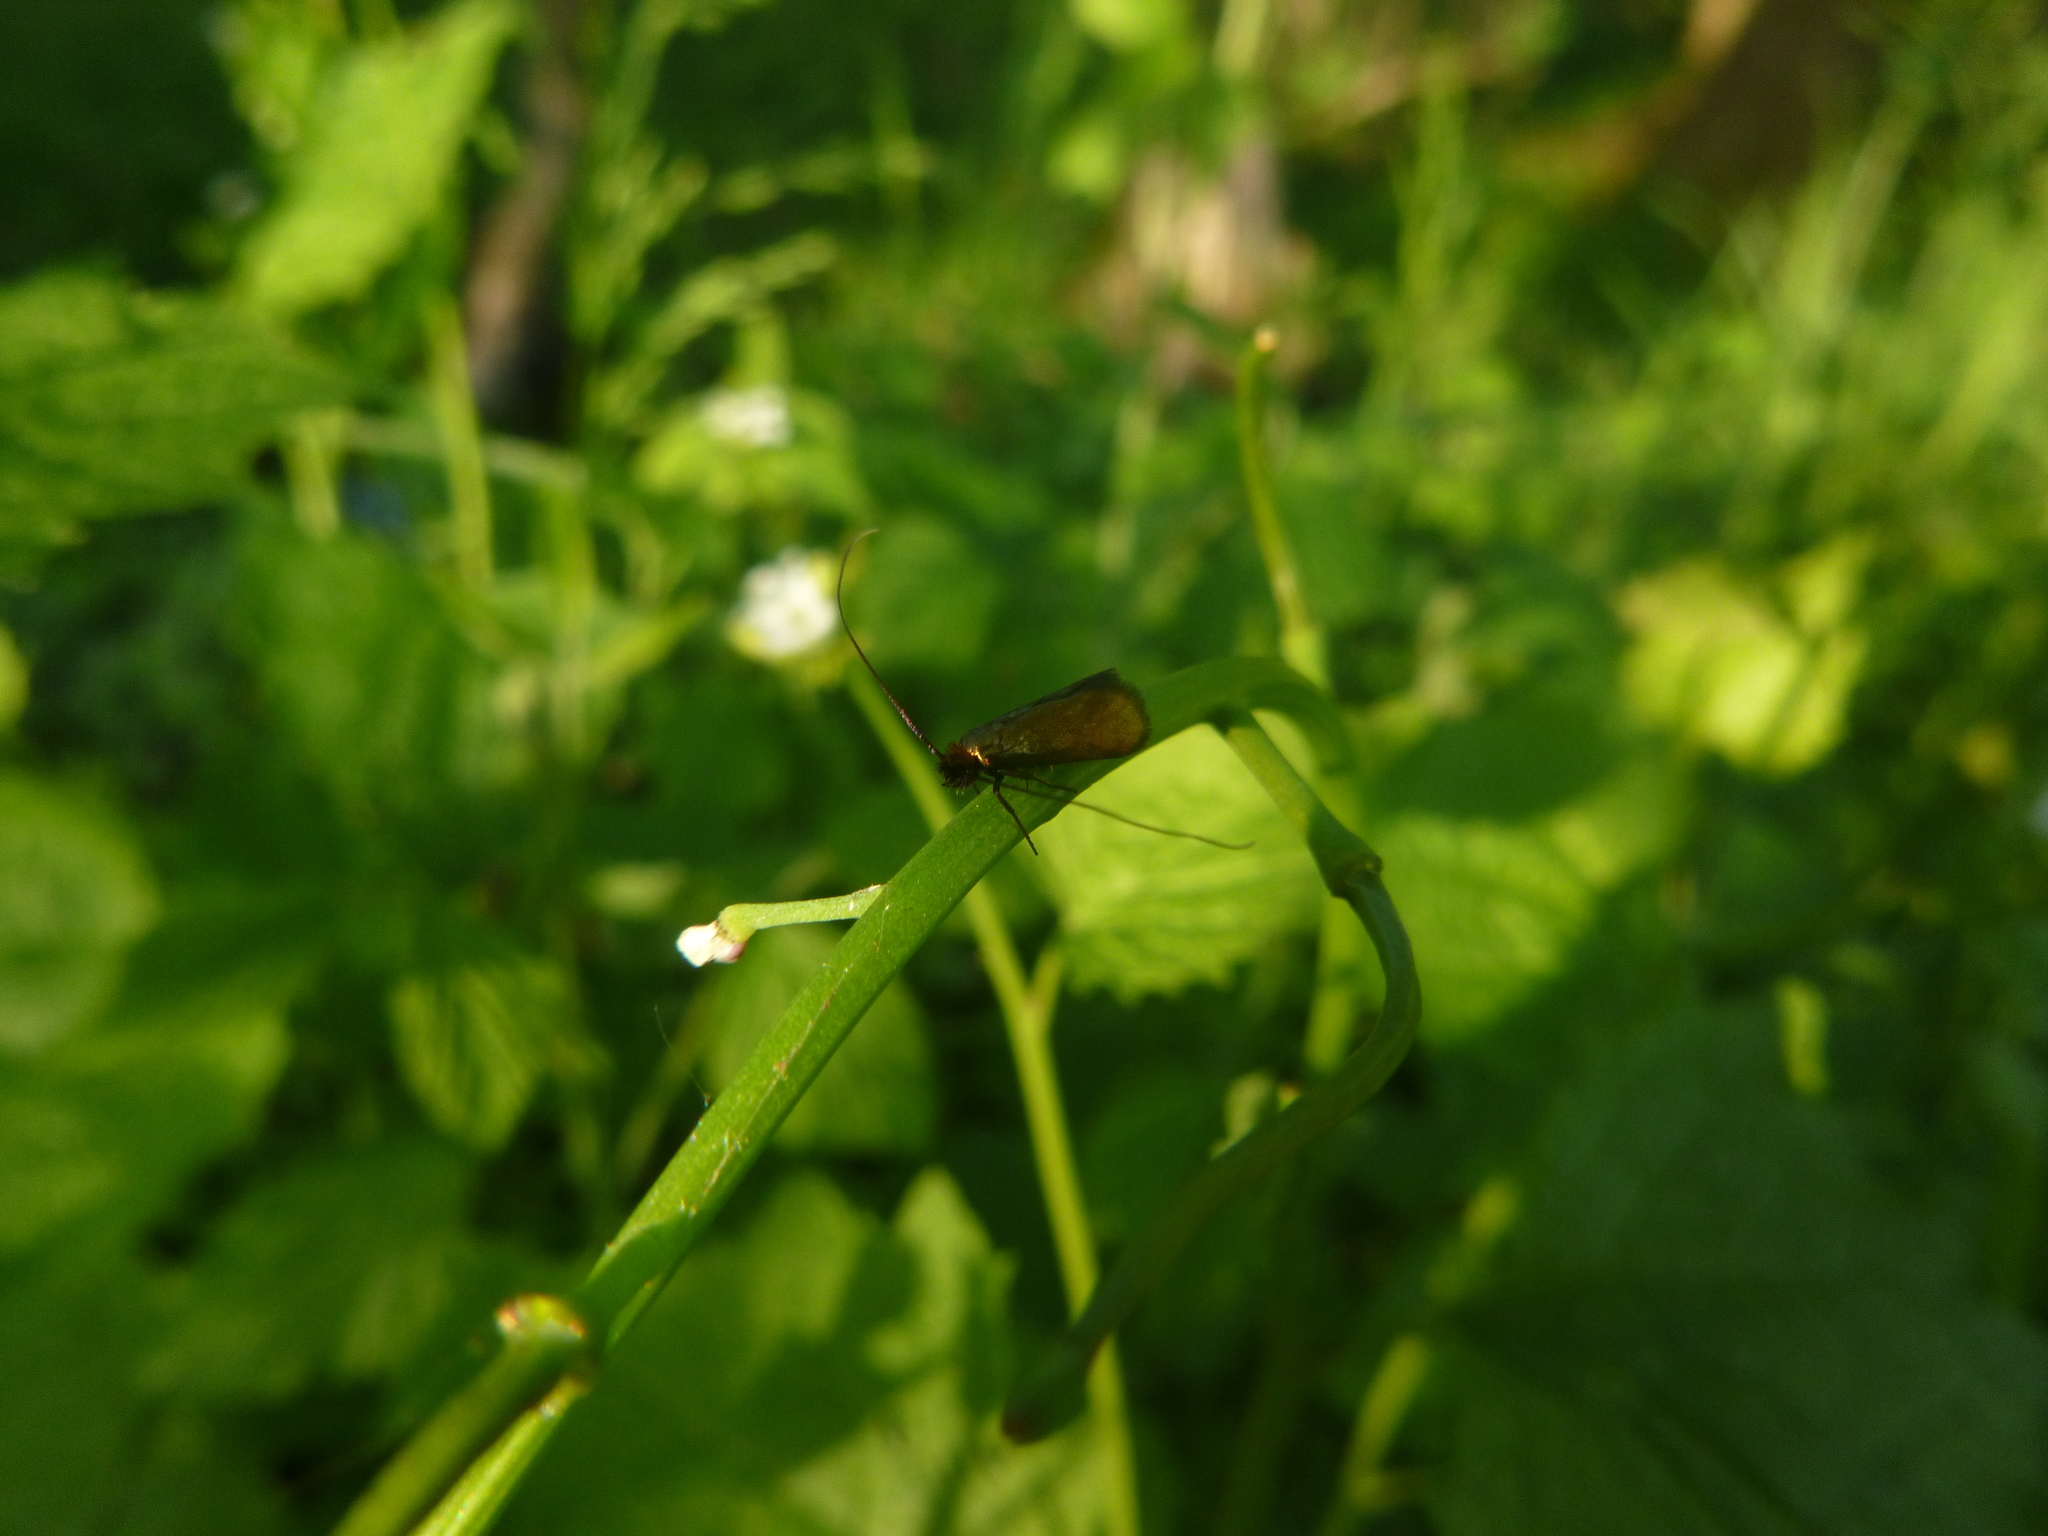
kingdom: Animalia
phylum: Arthropoda
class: Insecta
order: Lepidoptera
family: Adelidae
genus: Cauchas
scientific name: Cauchas rufimitrella
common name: Meadow long-horn
